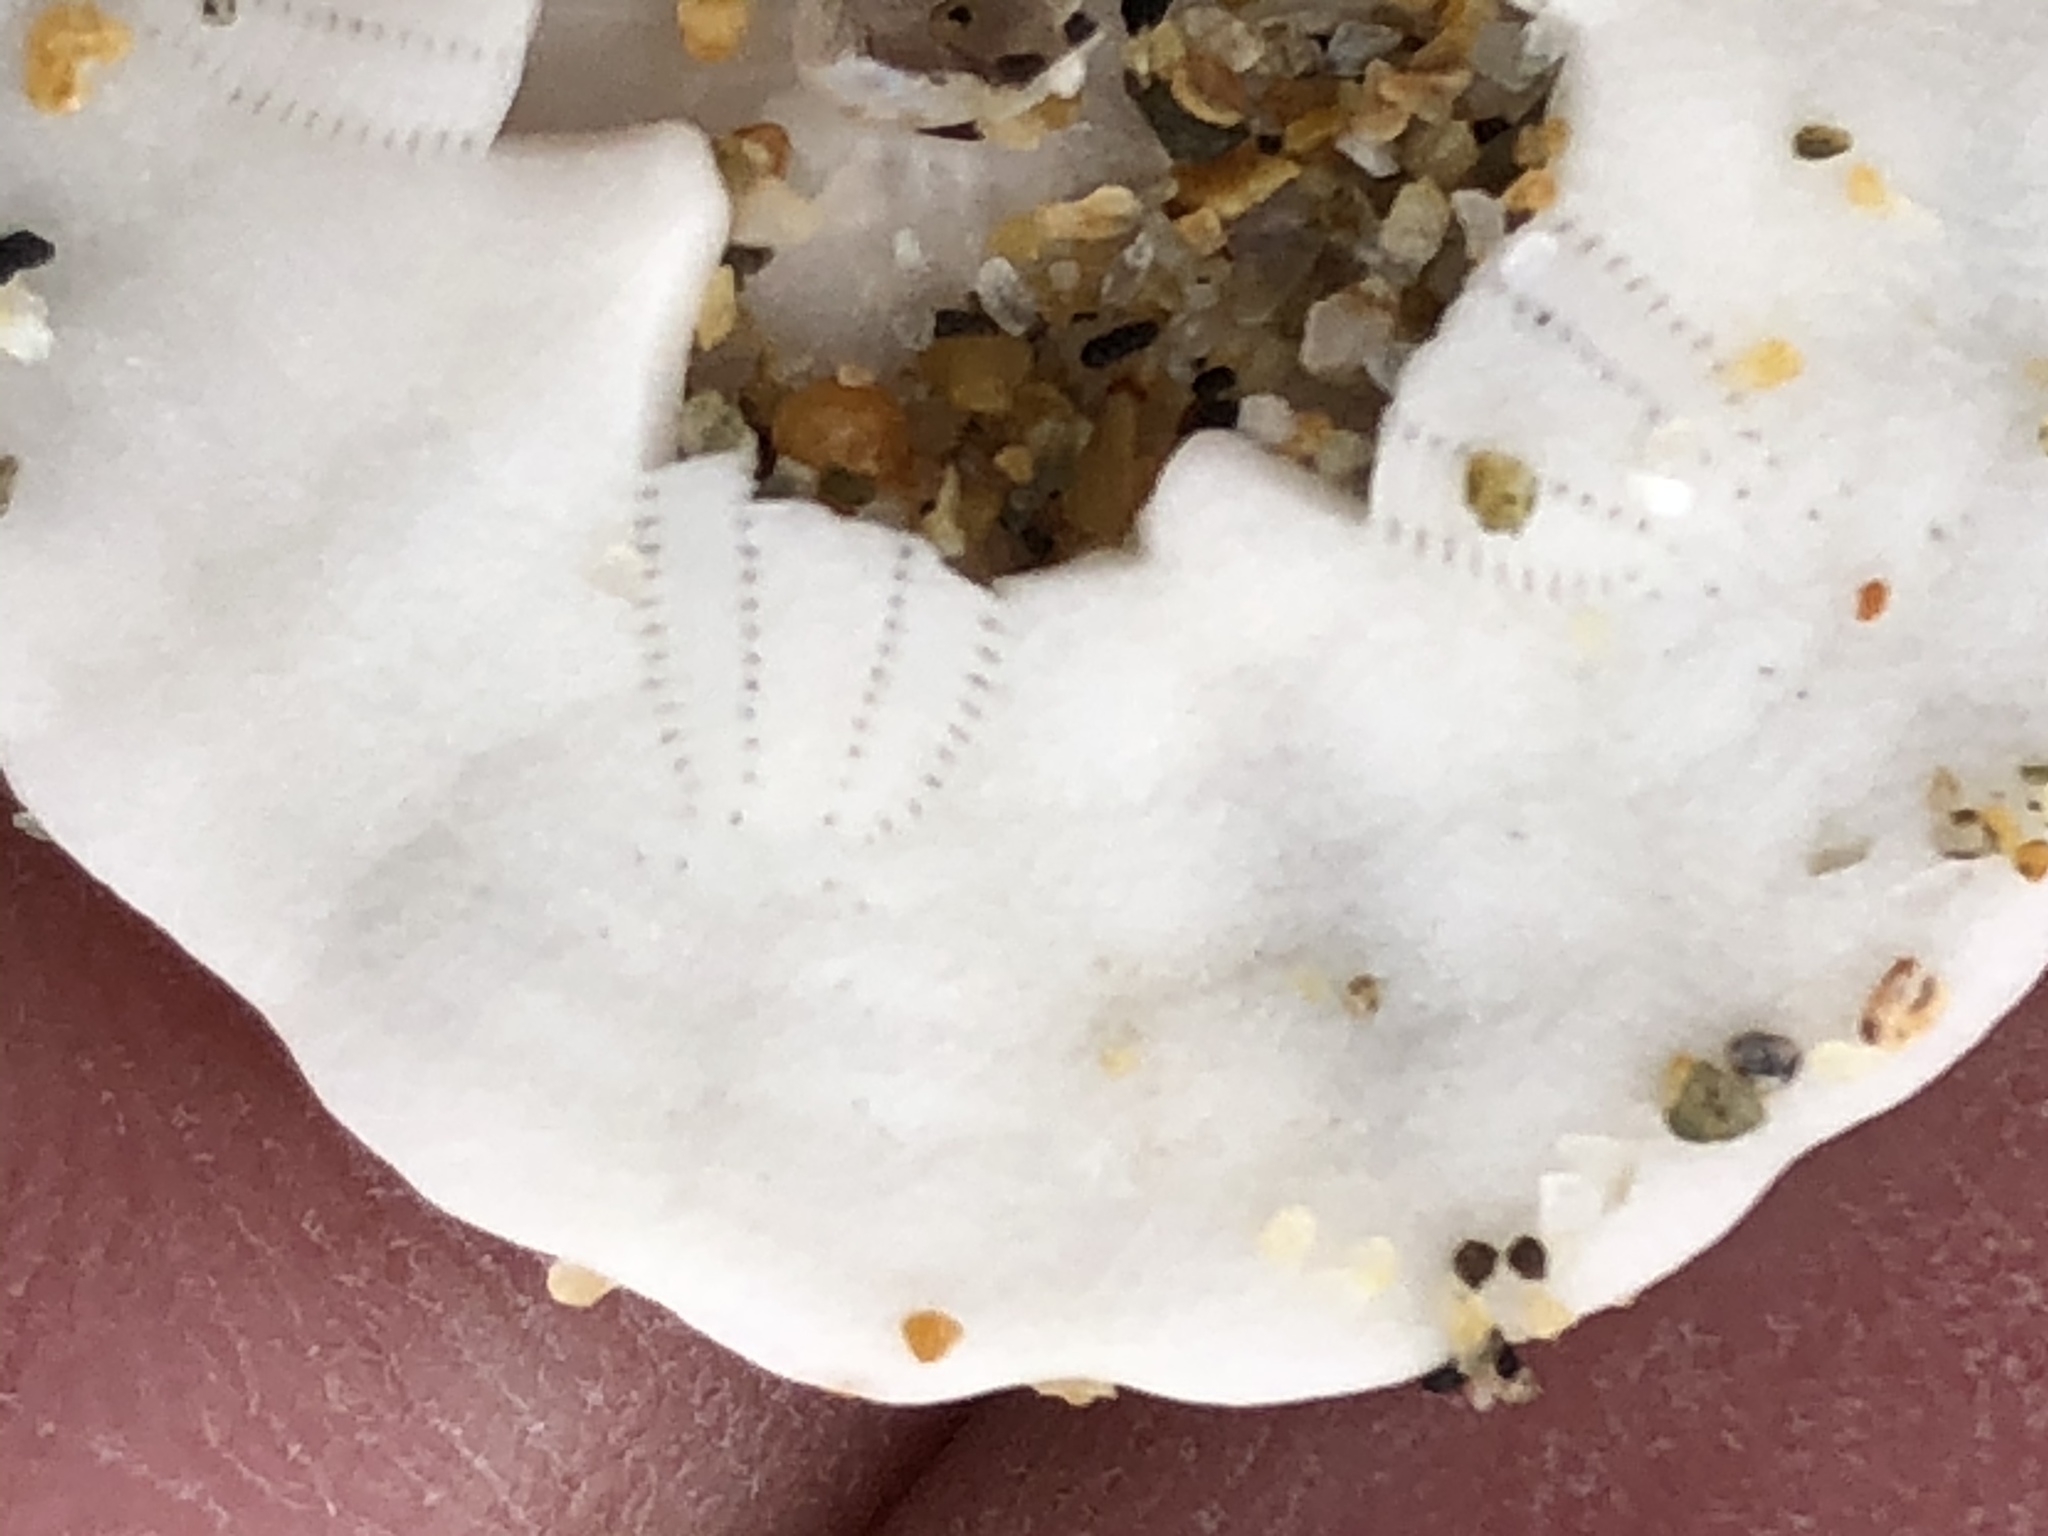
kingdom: Animalia
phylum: Echinodermata
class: Echinoidea
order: Echinolampadacea
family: Dendrasteridae
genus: Dendraster
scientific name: Dendraster excentricus
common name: Eccentric sand dollar sea urchin
